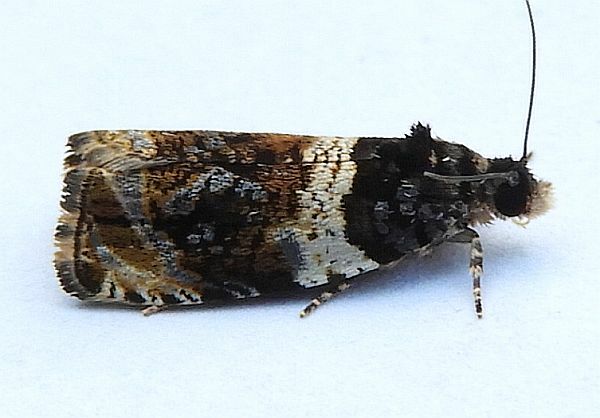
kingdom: Animalia
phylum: Arthropoda
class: Insecta
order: Lepidoptera
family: Tortricidae
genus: Olethreutes
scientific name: Olethreutes fasciatana
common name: Banded olethreutes moth
